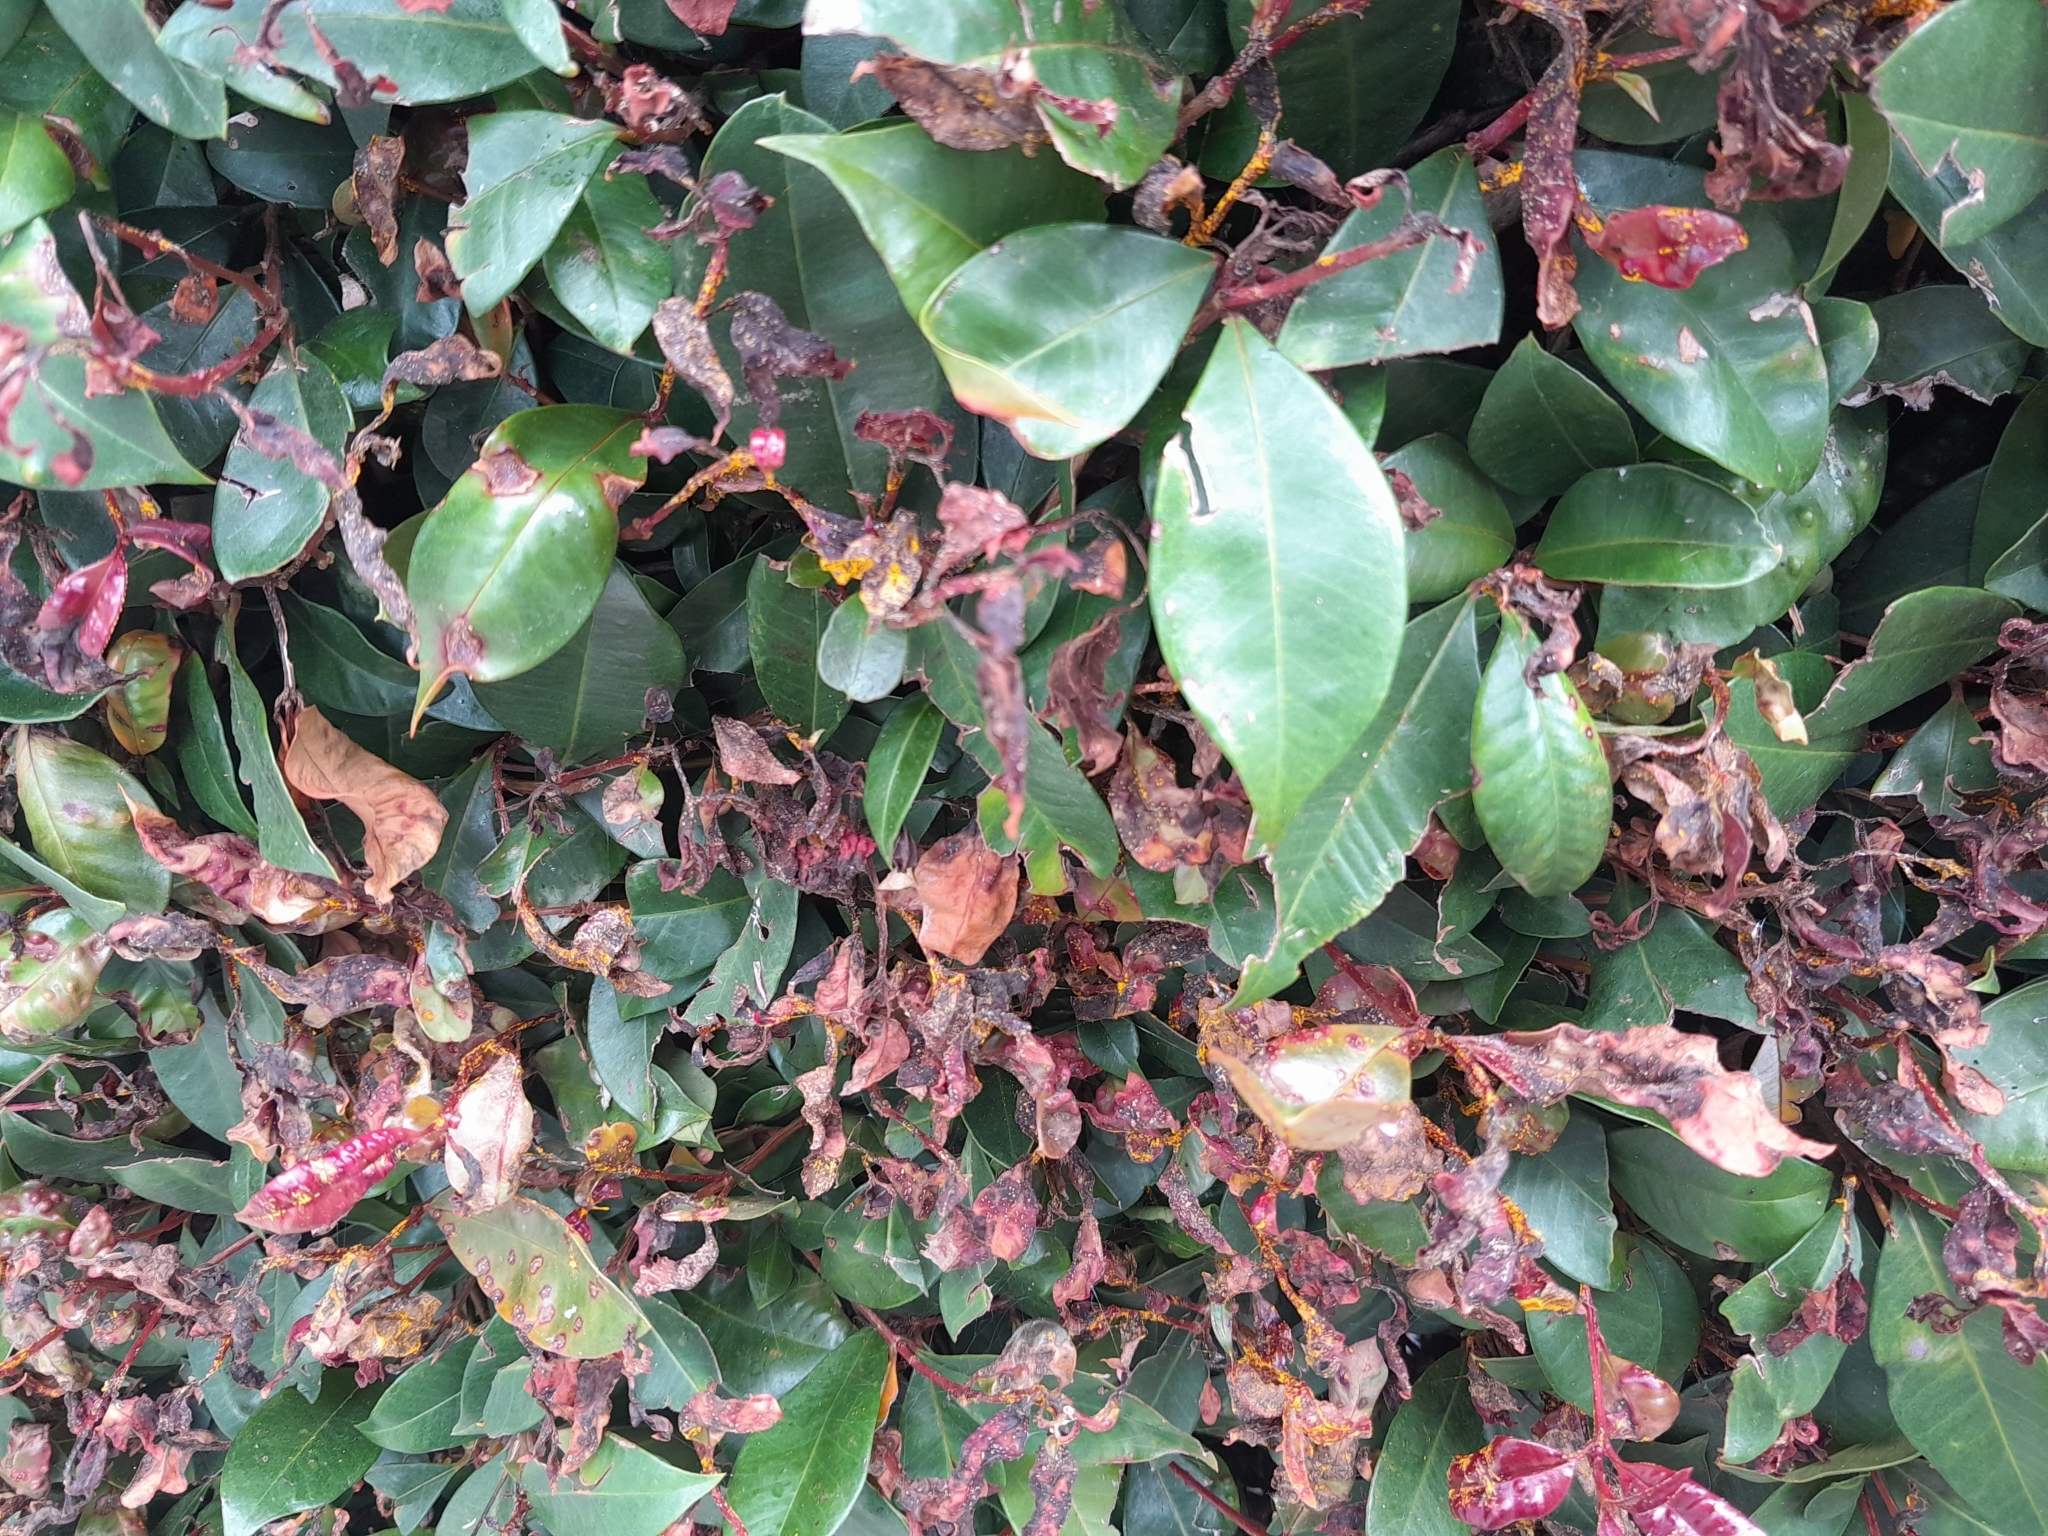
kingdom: Fungi
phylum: Basidiomycota
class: Pucciniomycetes
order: Pucciniales
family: Sphaerophragmiaceae
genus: Austropuccinia
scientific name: Austropuccinia psidii
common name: Myrtle rust
